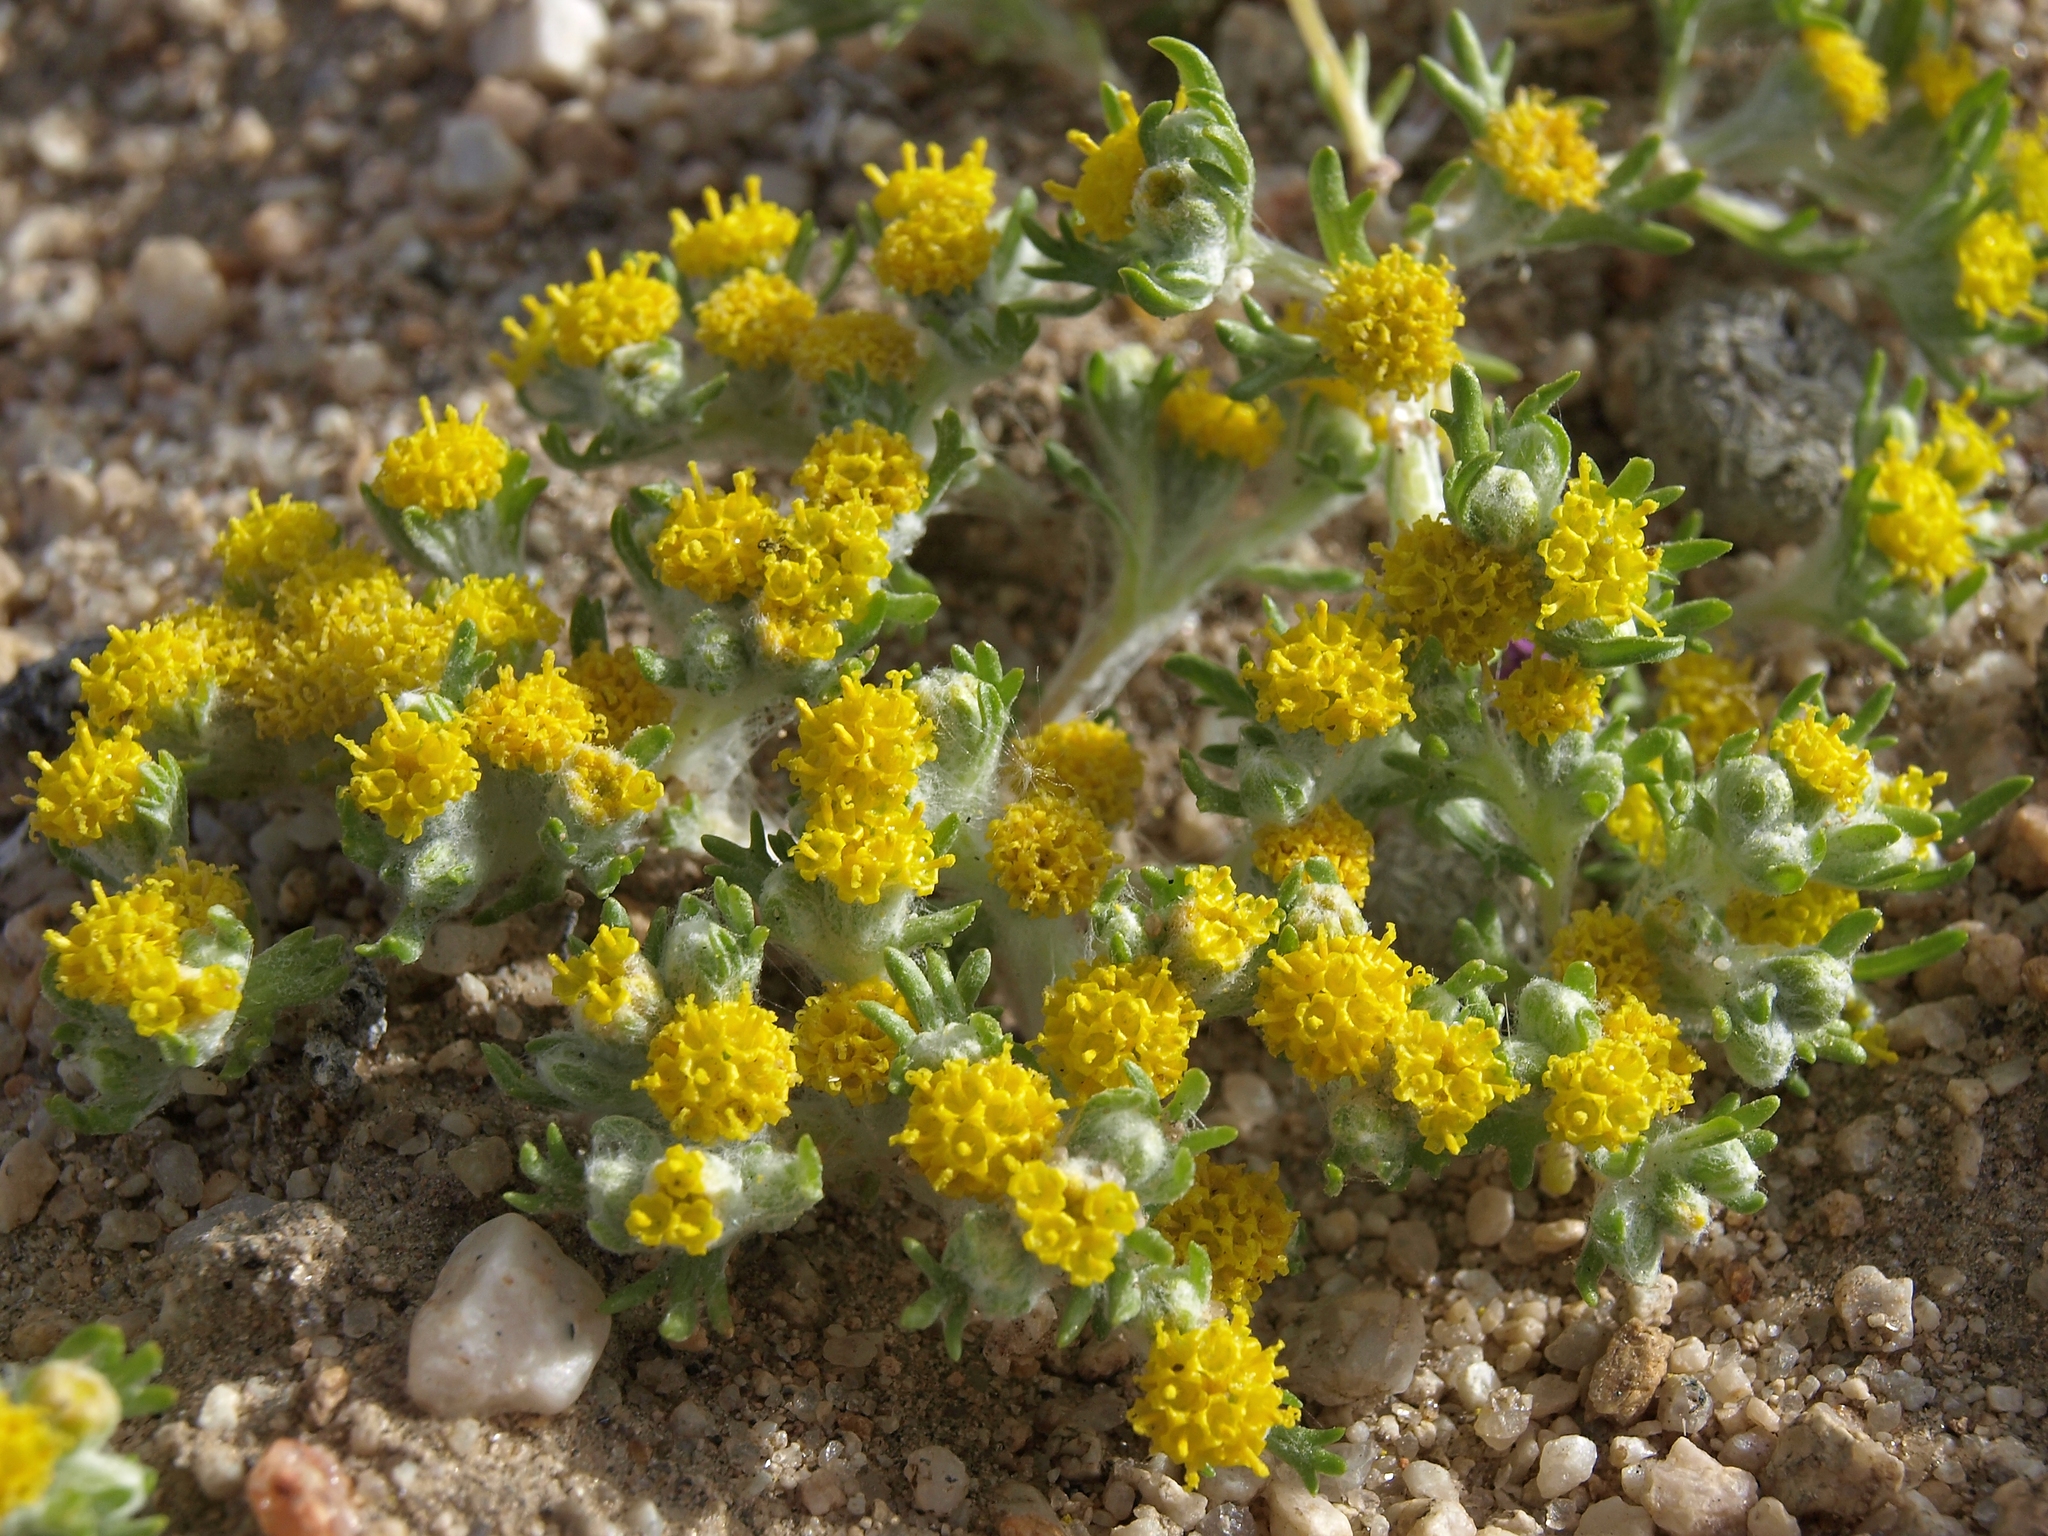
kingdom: Plantae
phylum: Tracheophyta
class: Magnoliopsida
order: Asterales
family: Asteraceae
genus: Eriophyllum
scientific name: Eriophyllum pringlei
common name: Pringle's woolly-sunflower
